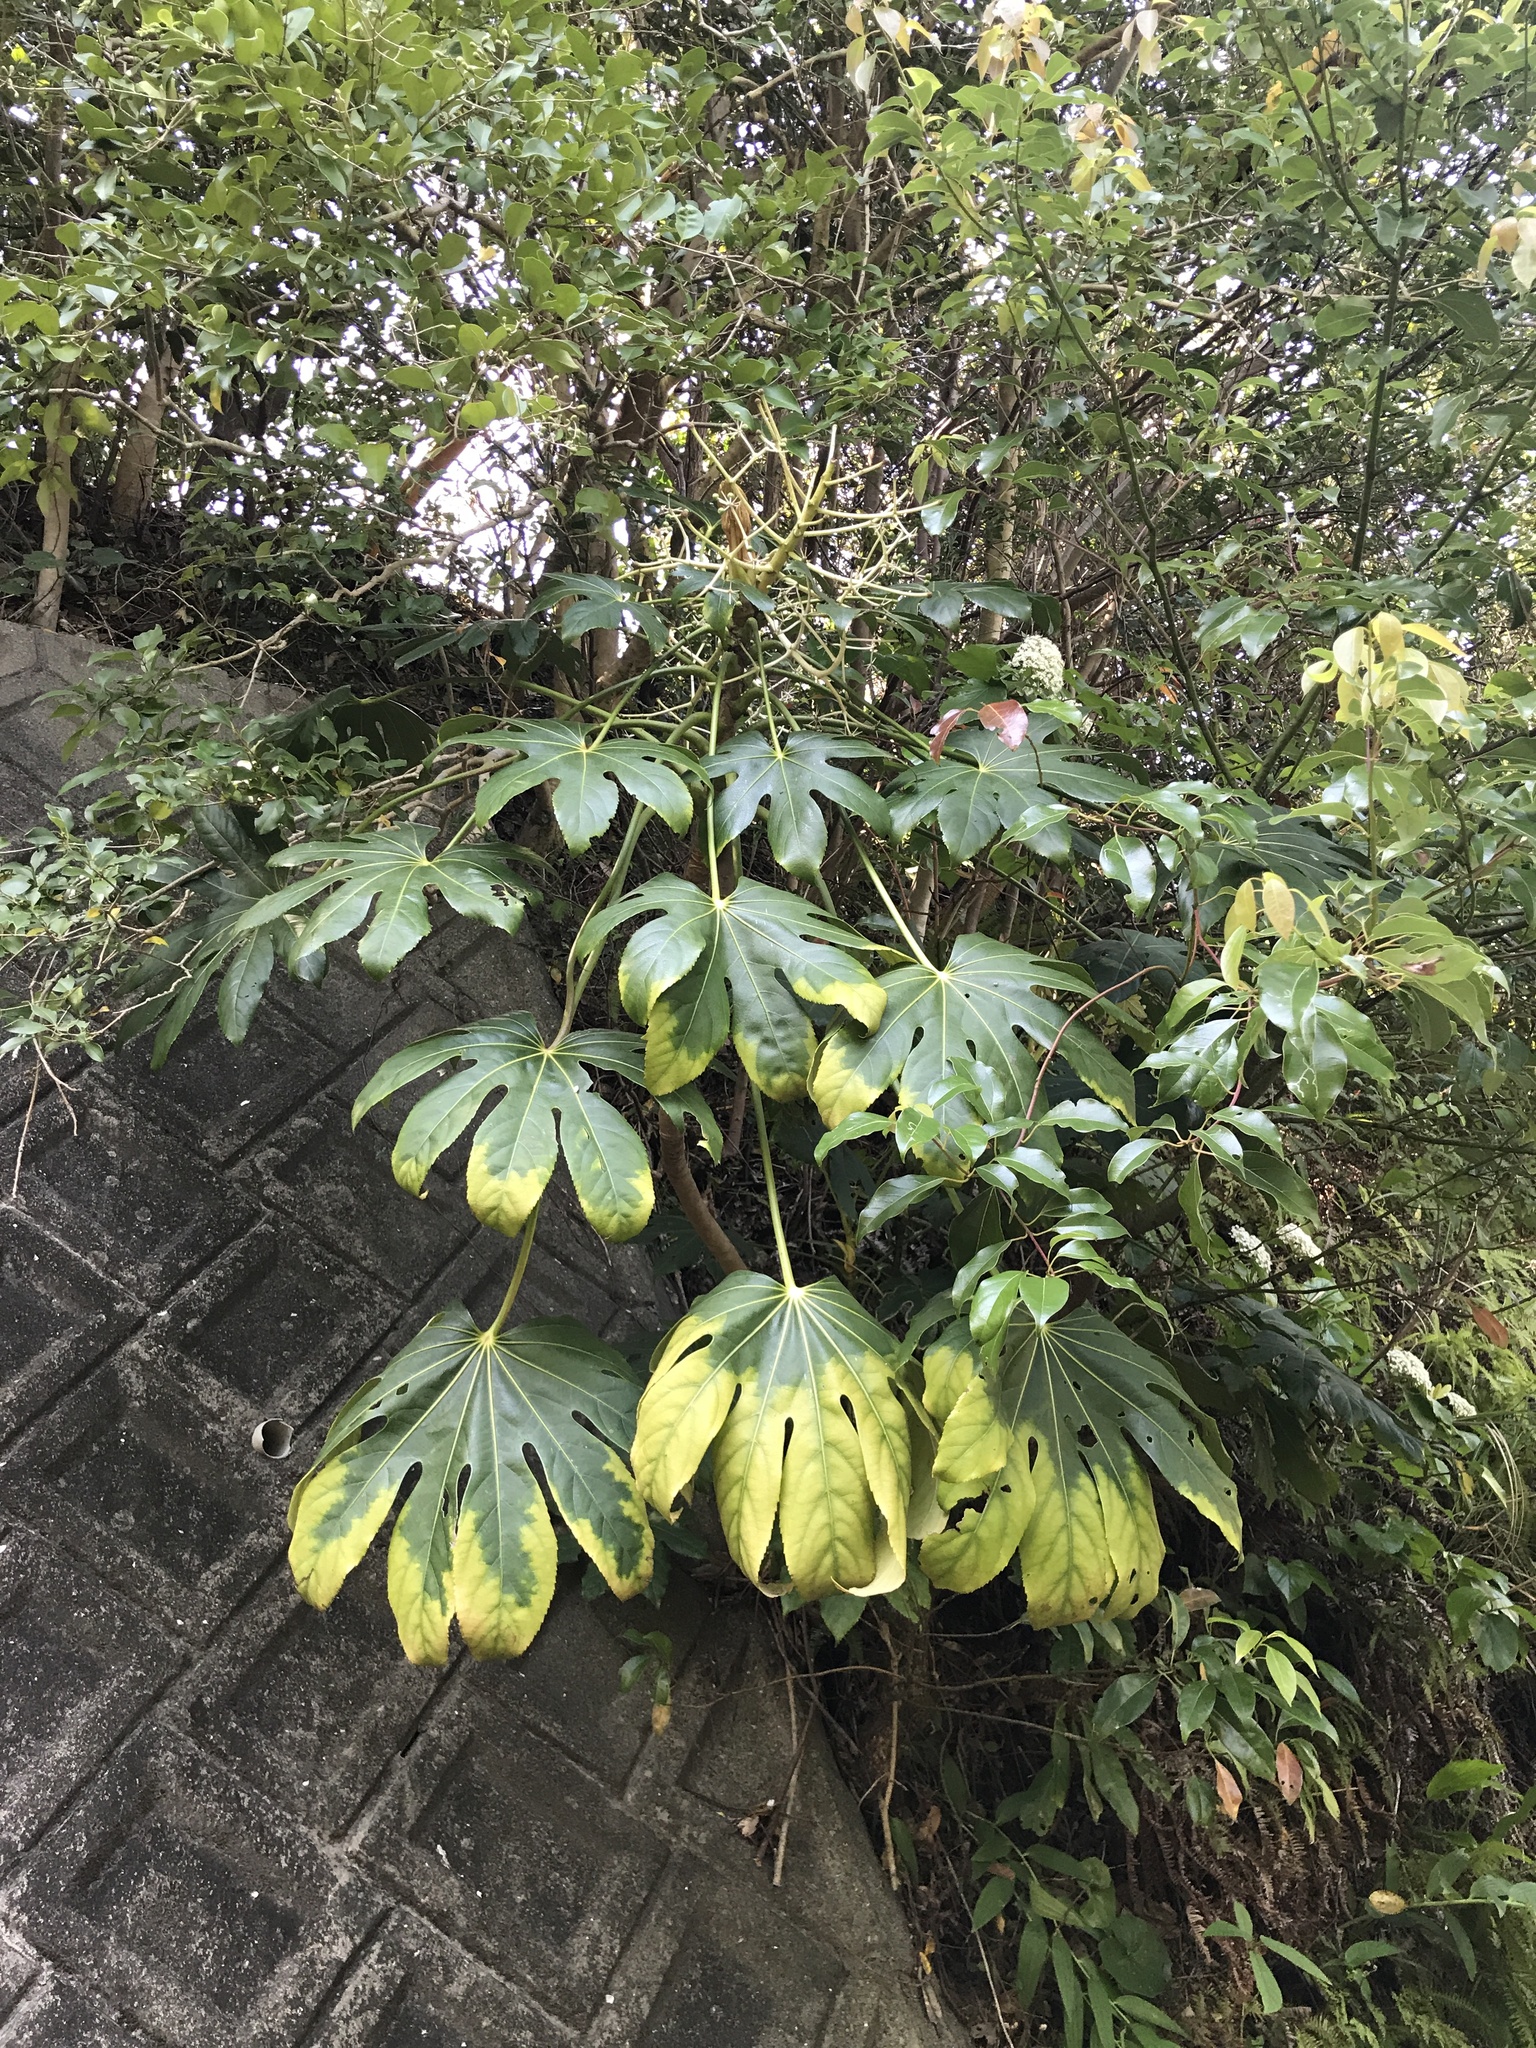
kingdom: Plantae
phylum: Tracheophyta
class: Magnoliopsida
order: Apiales
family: Araliaceae
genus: Fatsia
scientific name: Fatsia japonica
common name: Fatsia
